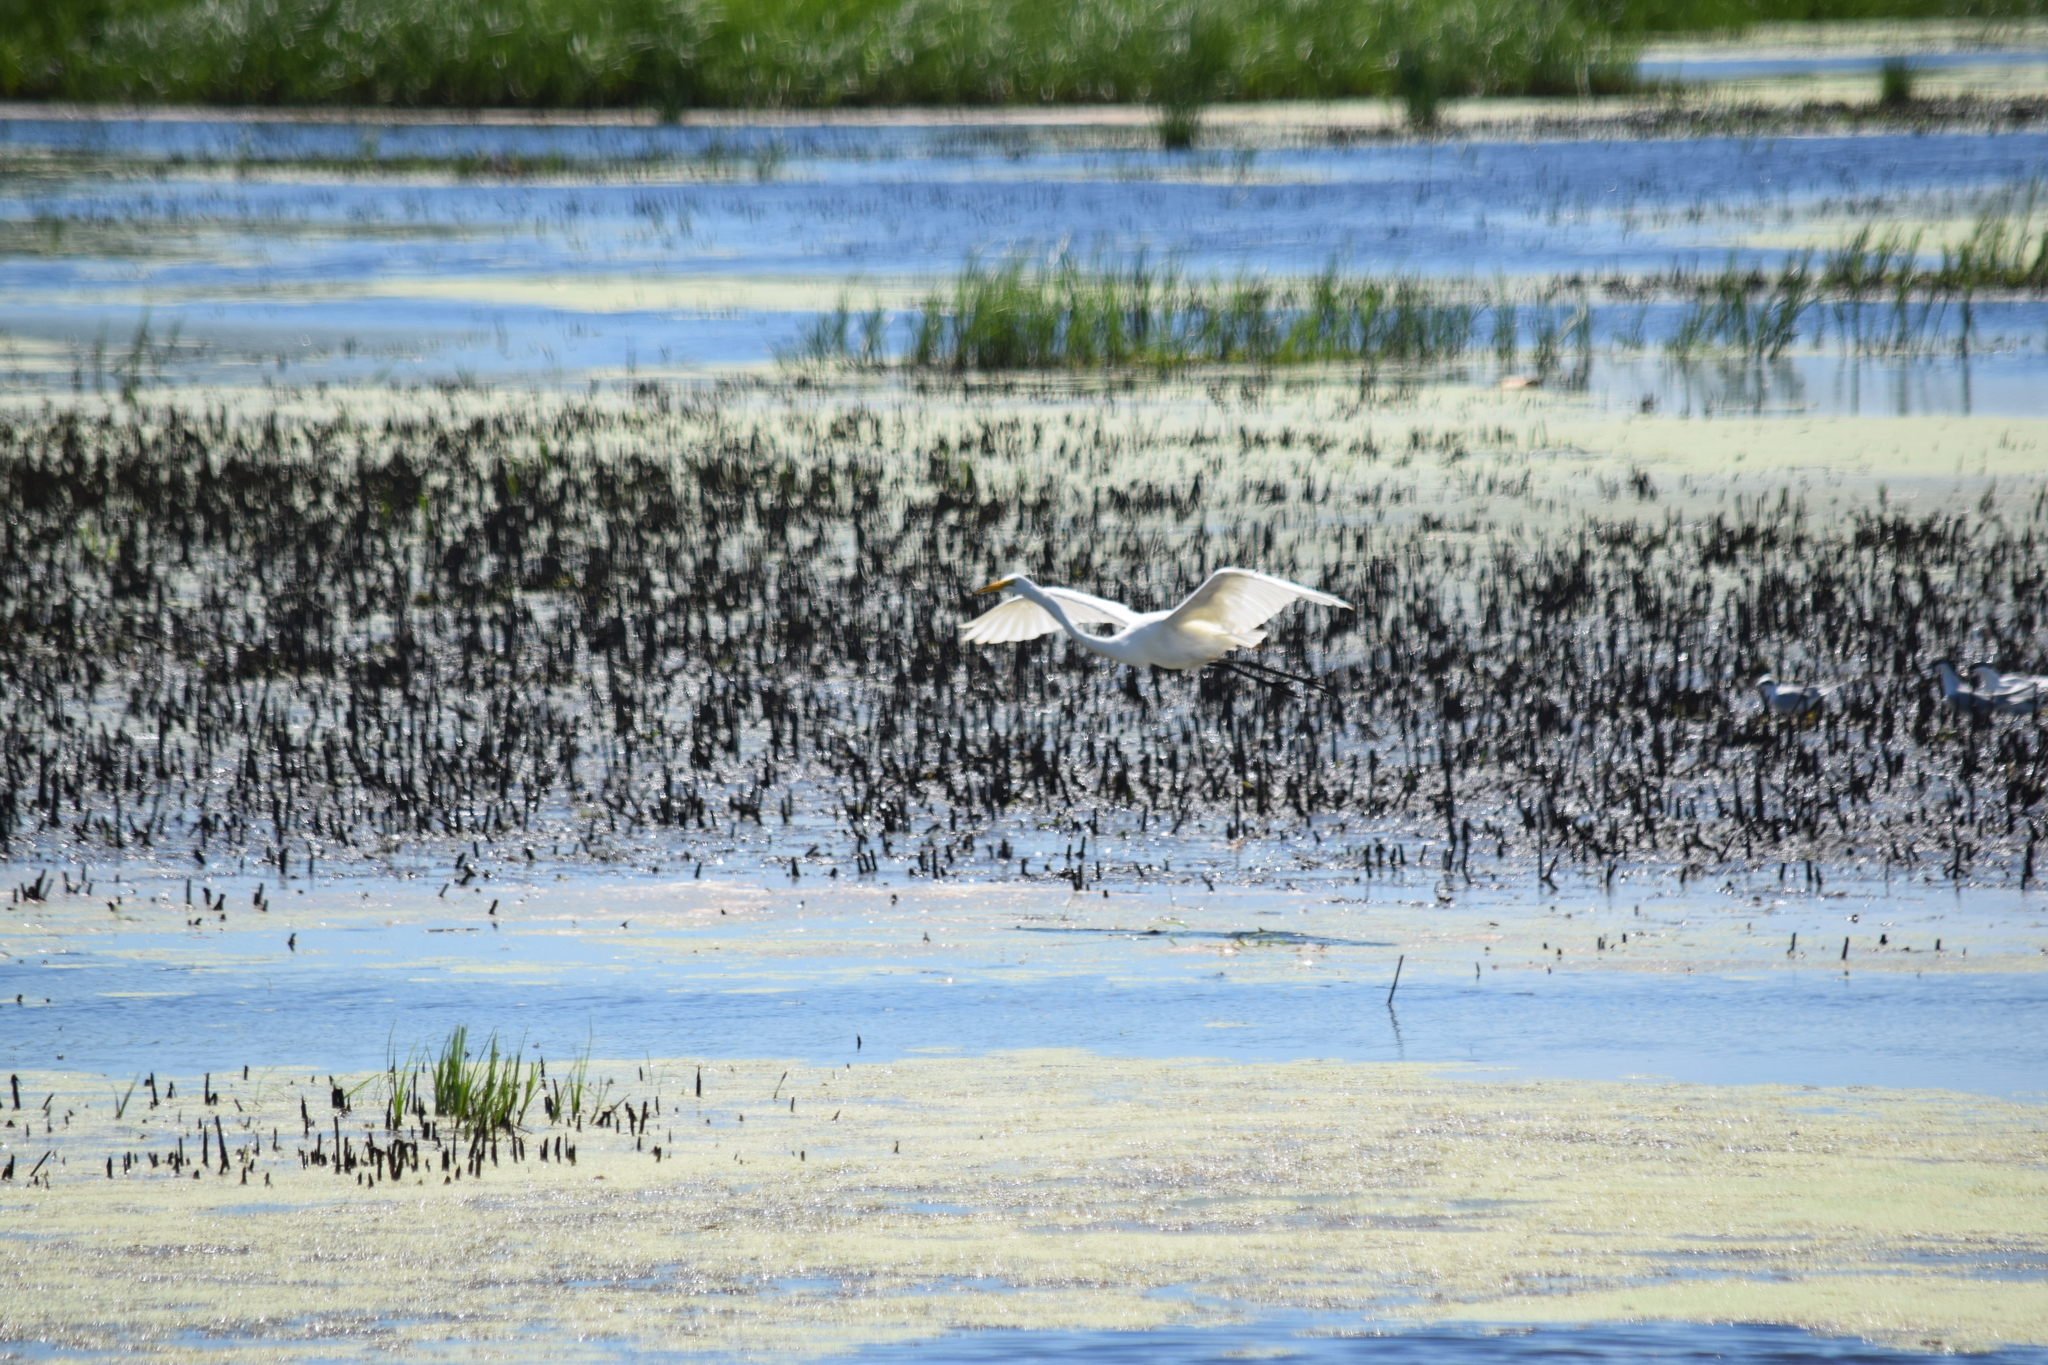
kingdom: Animalia
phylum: Chordata
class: Aves
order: Pelecaniformes
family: Ardeidae
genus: Ardea
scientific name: Ardea alba
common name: Great egret
